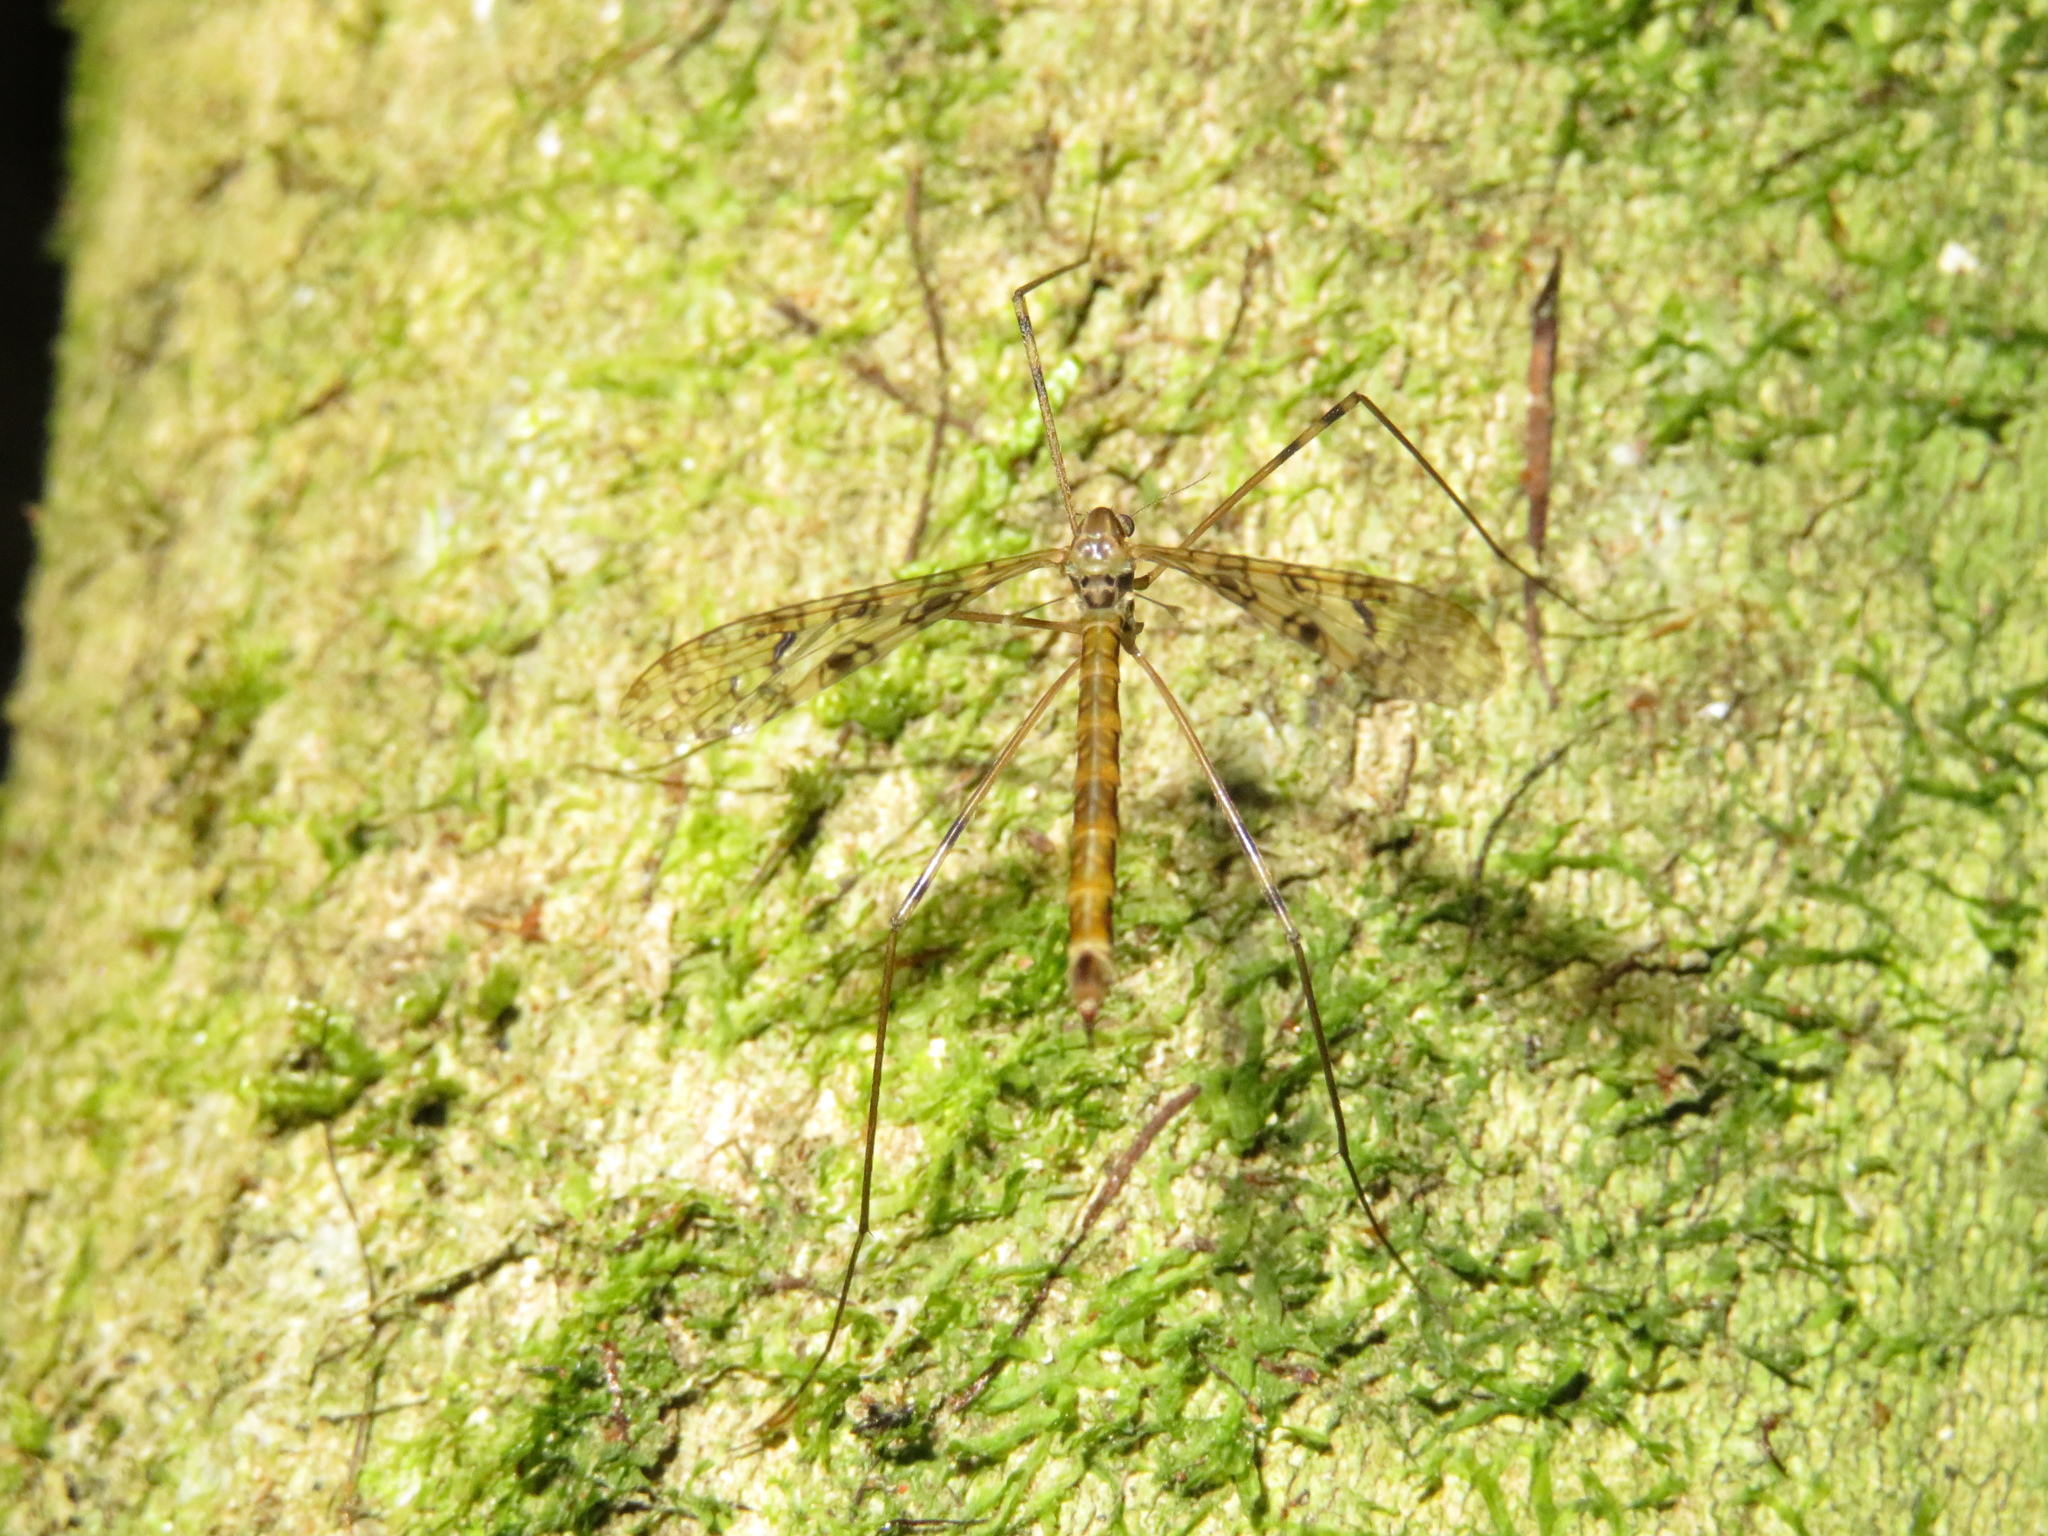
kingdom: Animalia
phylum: Arthropoda
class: Insecta
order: Diptera
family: Limoniidae
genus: Austrolimnophila
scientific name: Austrolimnophila argus
